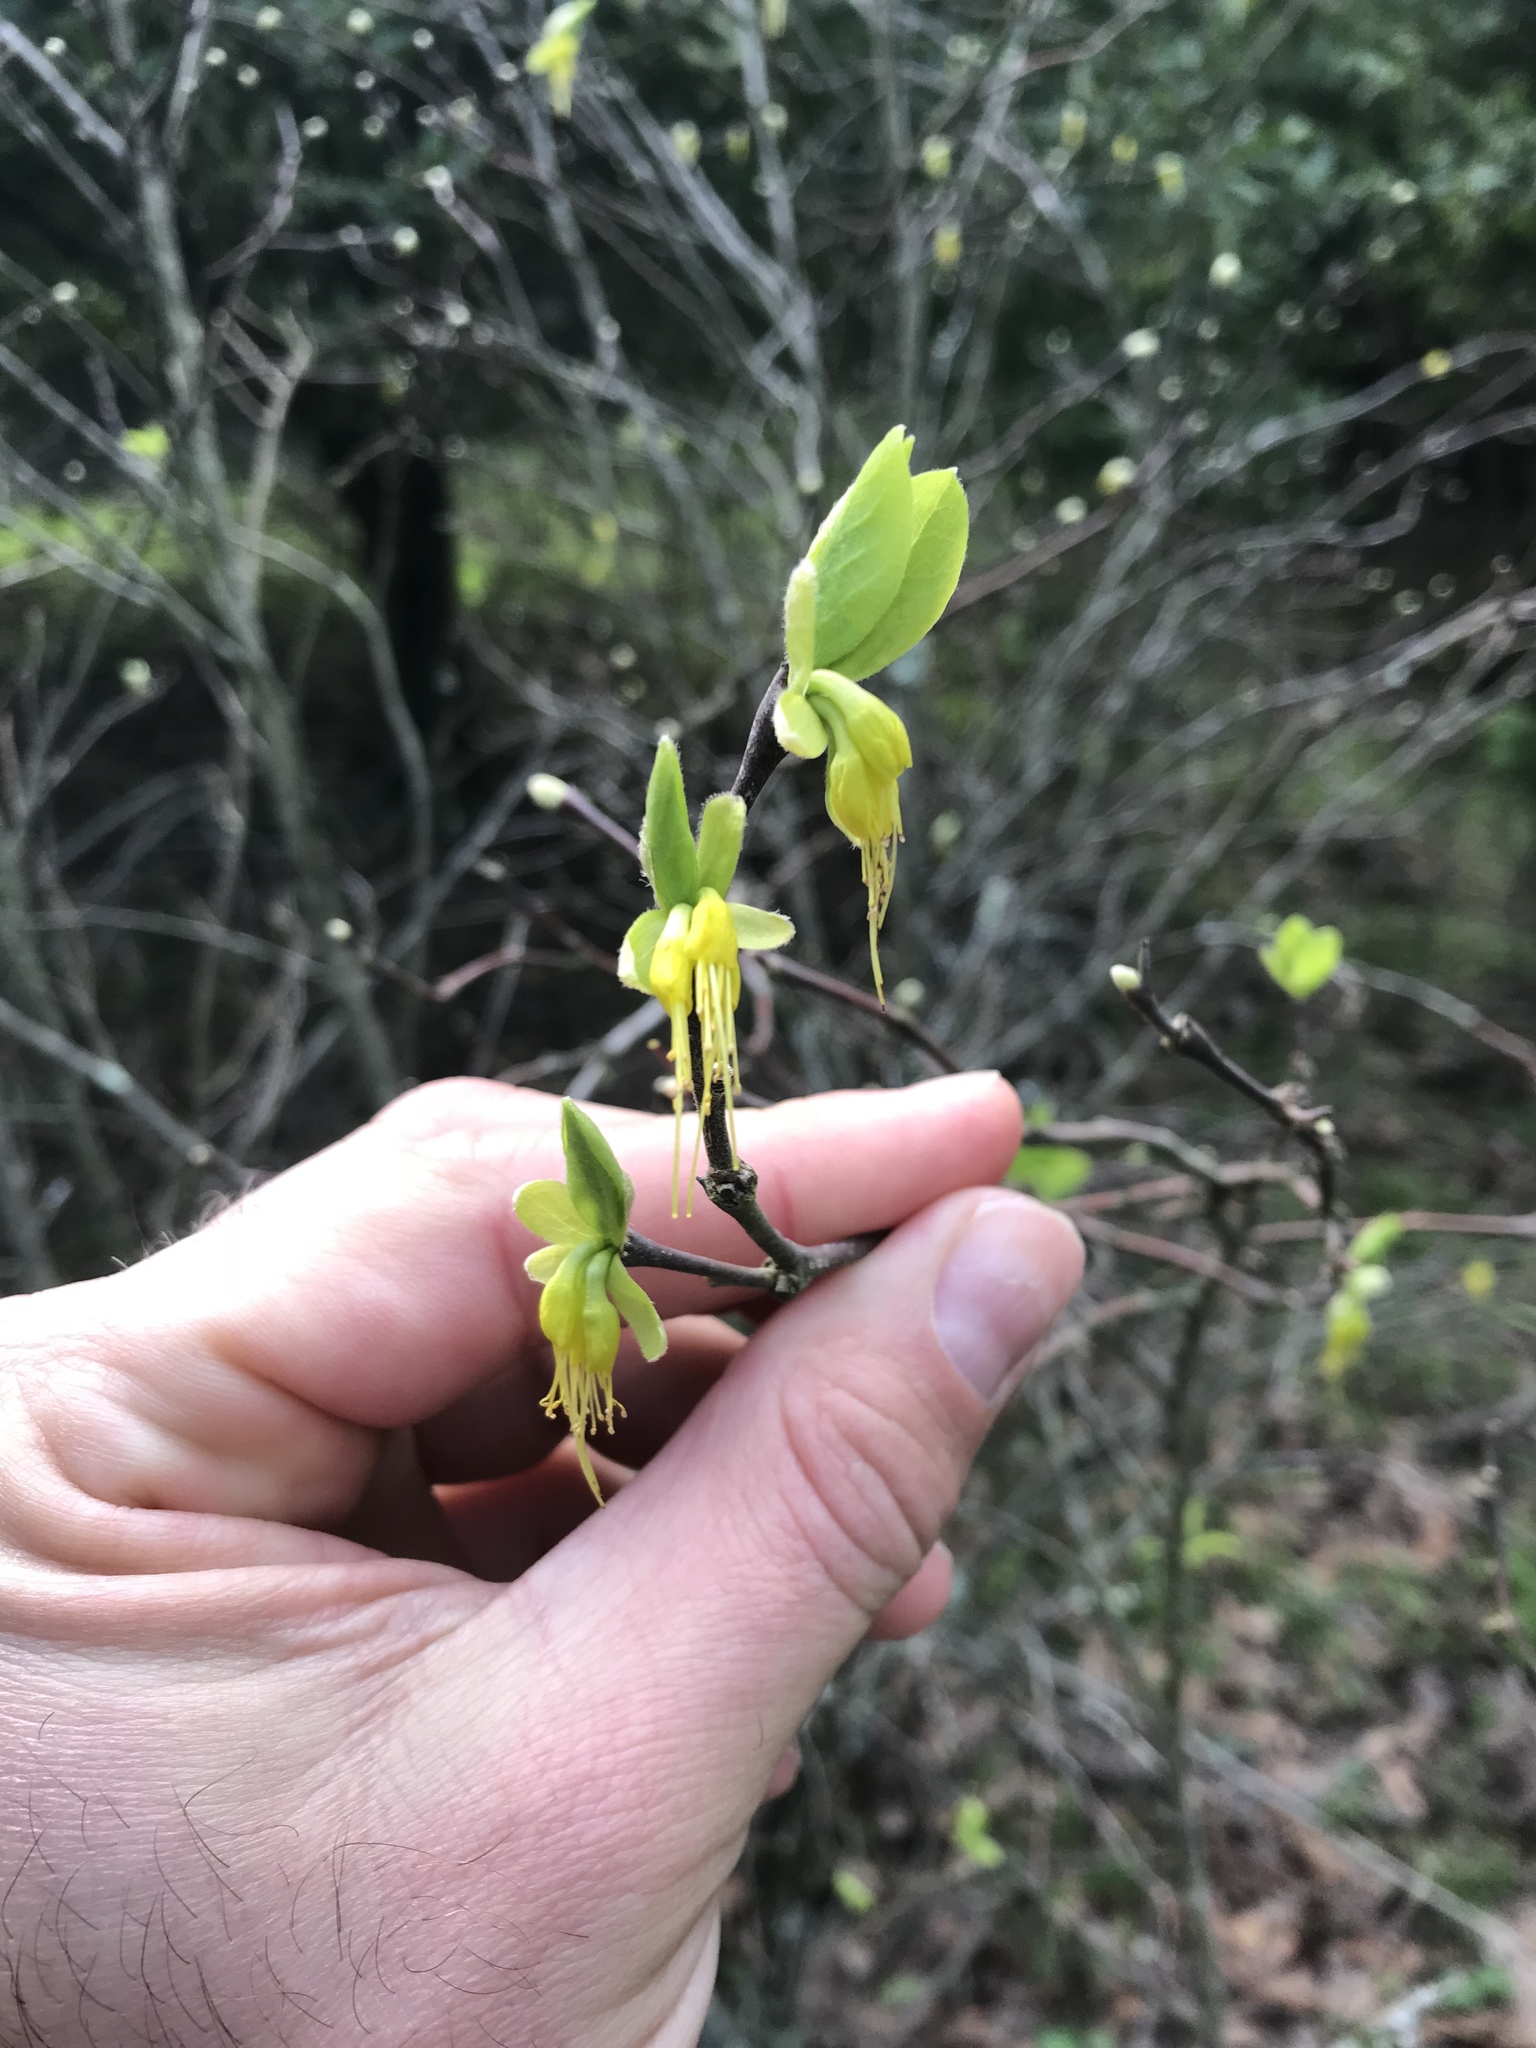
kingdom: Plantae
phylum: Tracheophyta
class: Magnoliopsida
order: Malvales
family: Thymelaeaceae
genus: Dirca
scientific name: Dirca occidentalis
